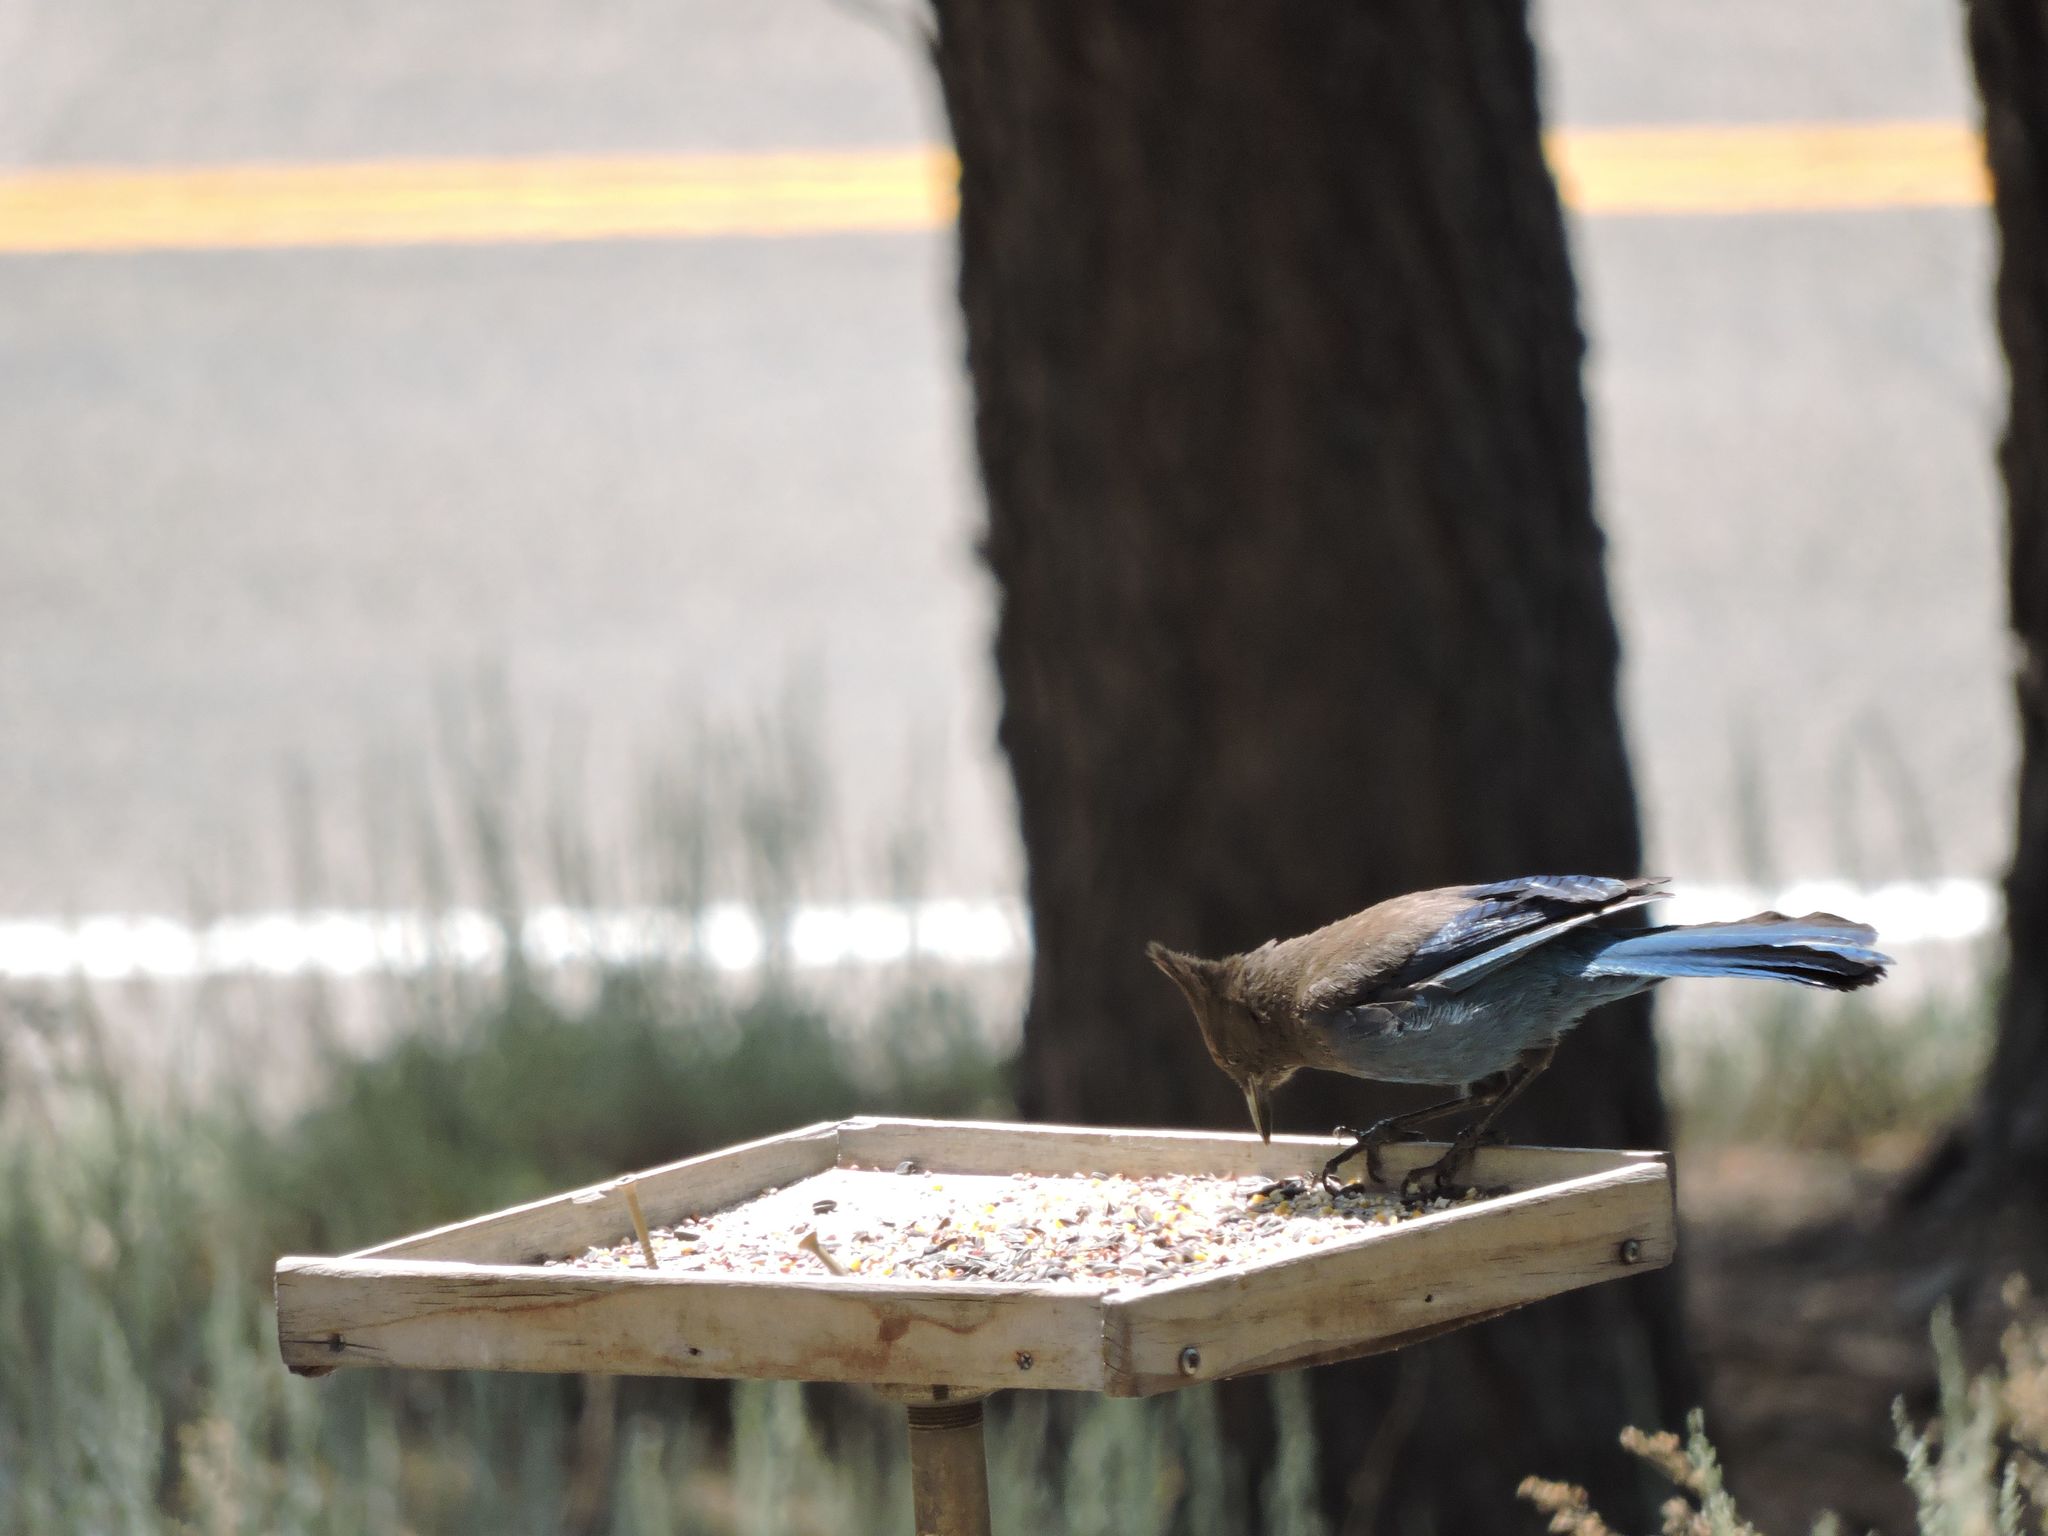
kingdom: Animalia
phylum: Chordata
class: Aves
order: Passeriformes
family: Corvidae
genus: Cyanocitta
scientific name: Cyanocitta stelleri
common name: Steller's jay
